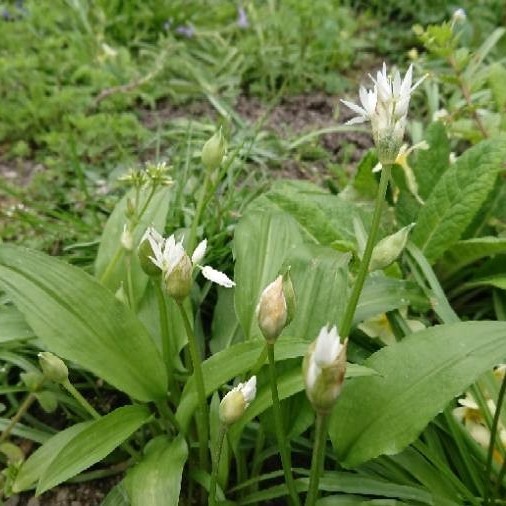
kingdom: Plantae
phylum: Tracheophyta
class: Liliopsida
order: Asparagales
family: Amaryllidaceae
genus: Allium
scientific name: Allium ursinum
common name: Ramsons
